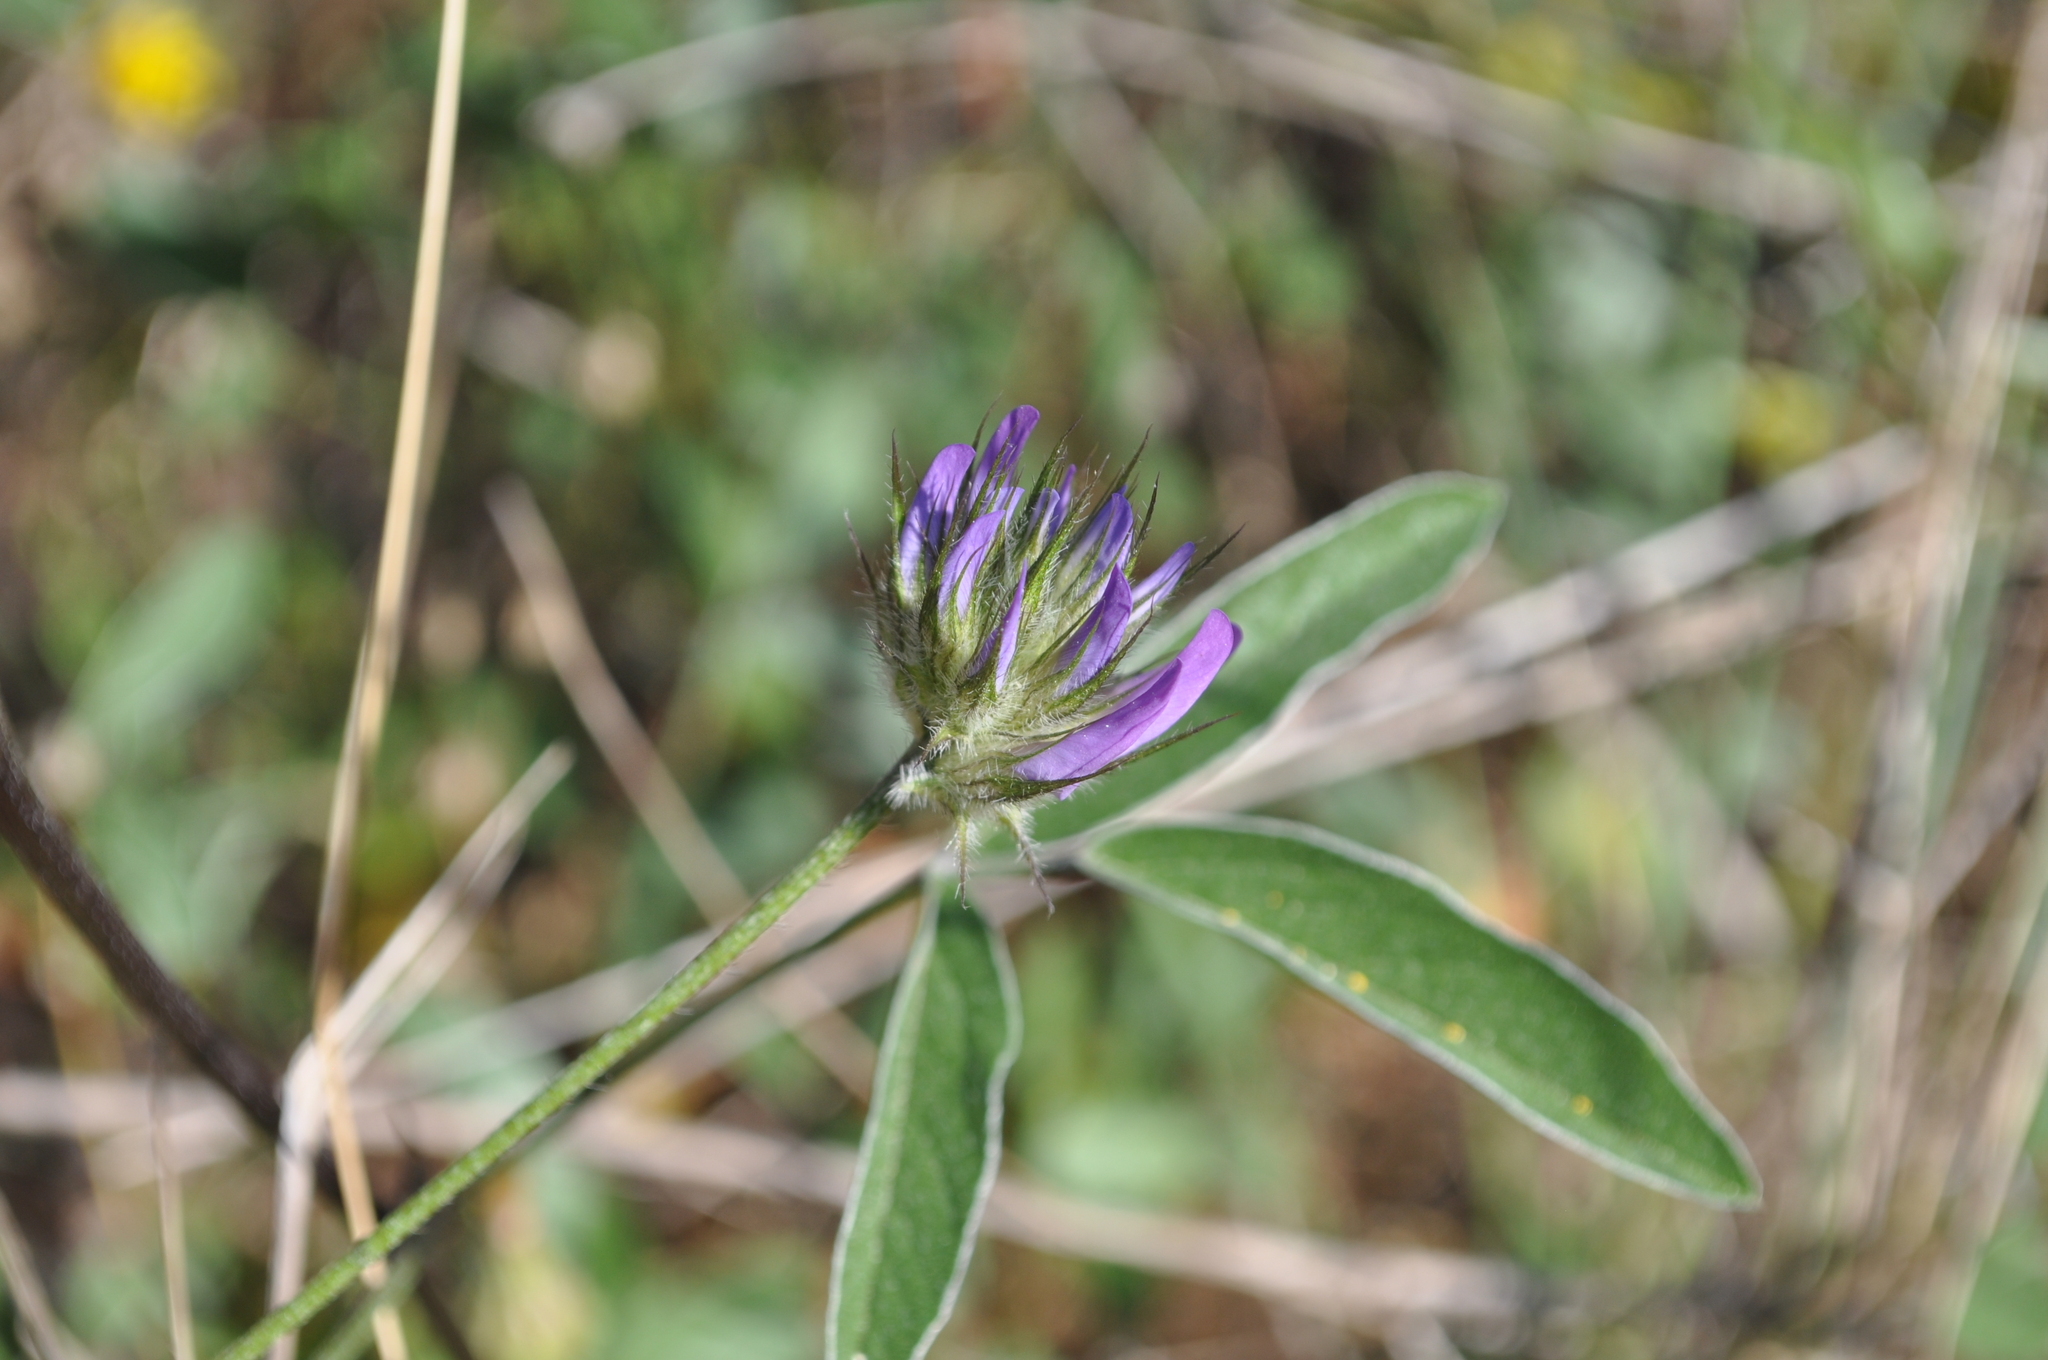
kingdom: Plantae
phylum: Tracheophyta
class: Magnoliopsida
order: Fabales
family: Fabaceae
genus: Bituminaria
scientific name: Bituminaria bituminosa
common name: Arabian pea
